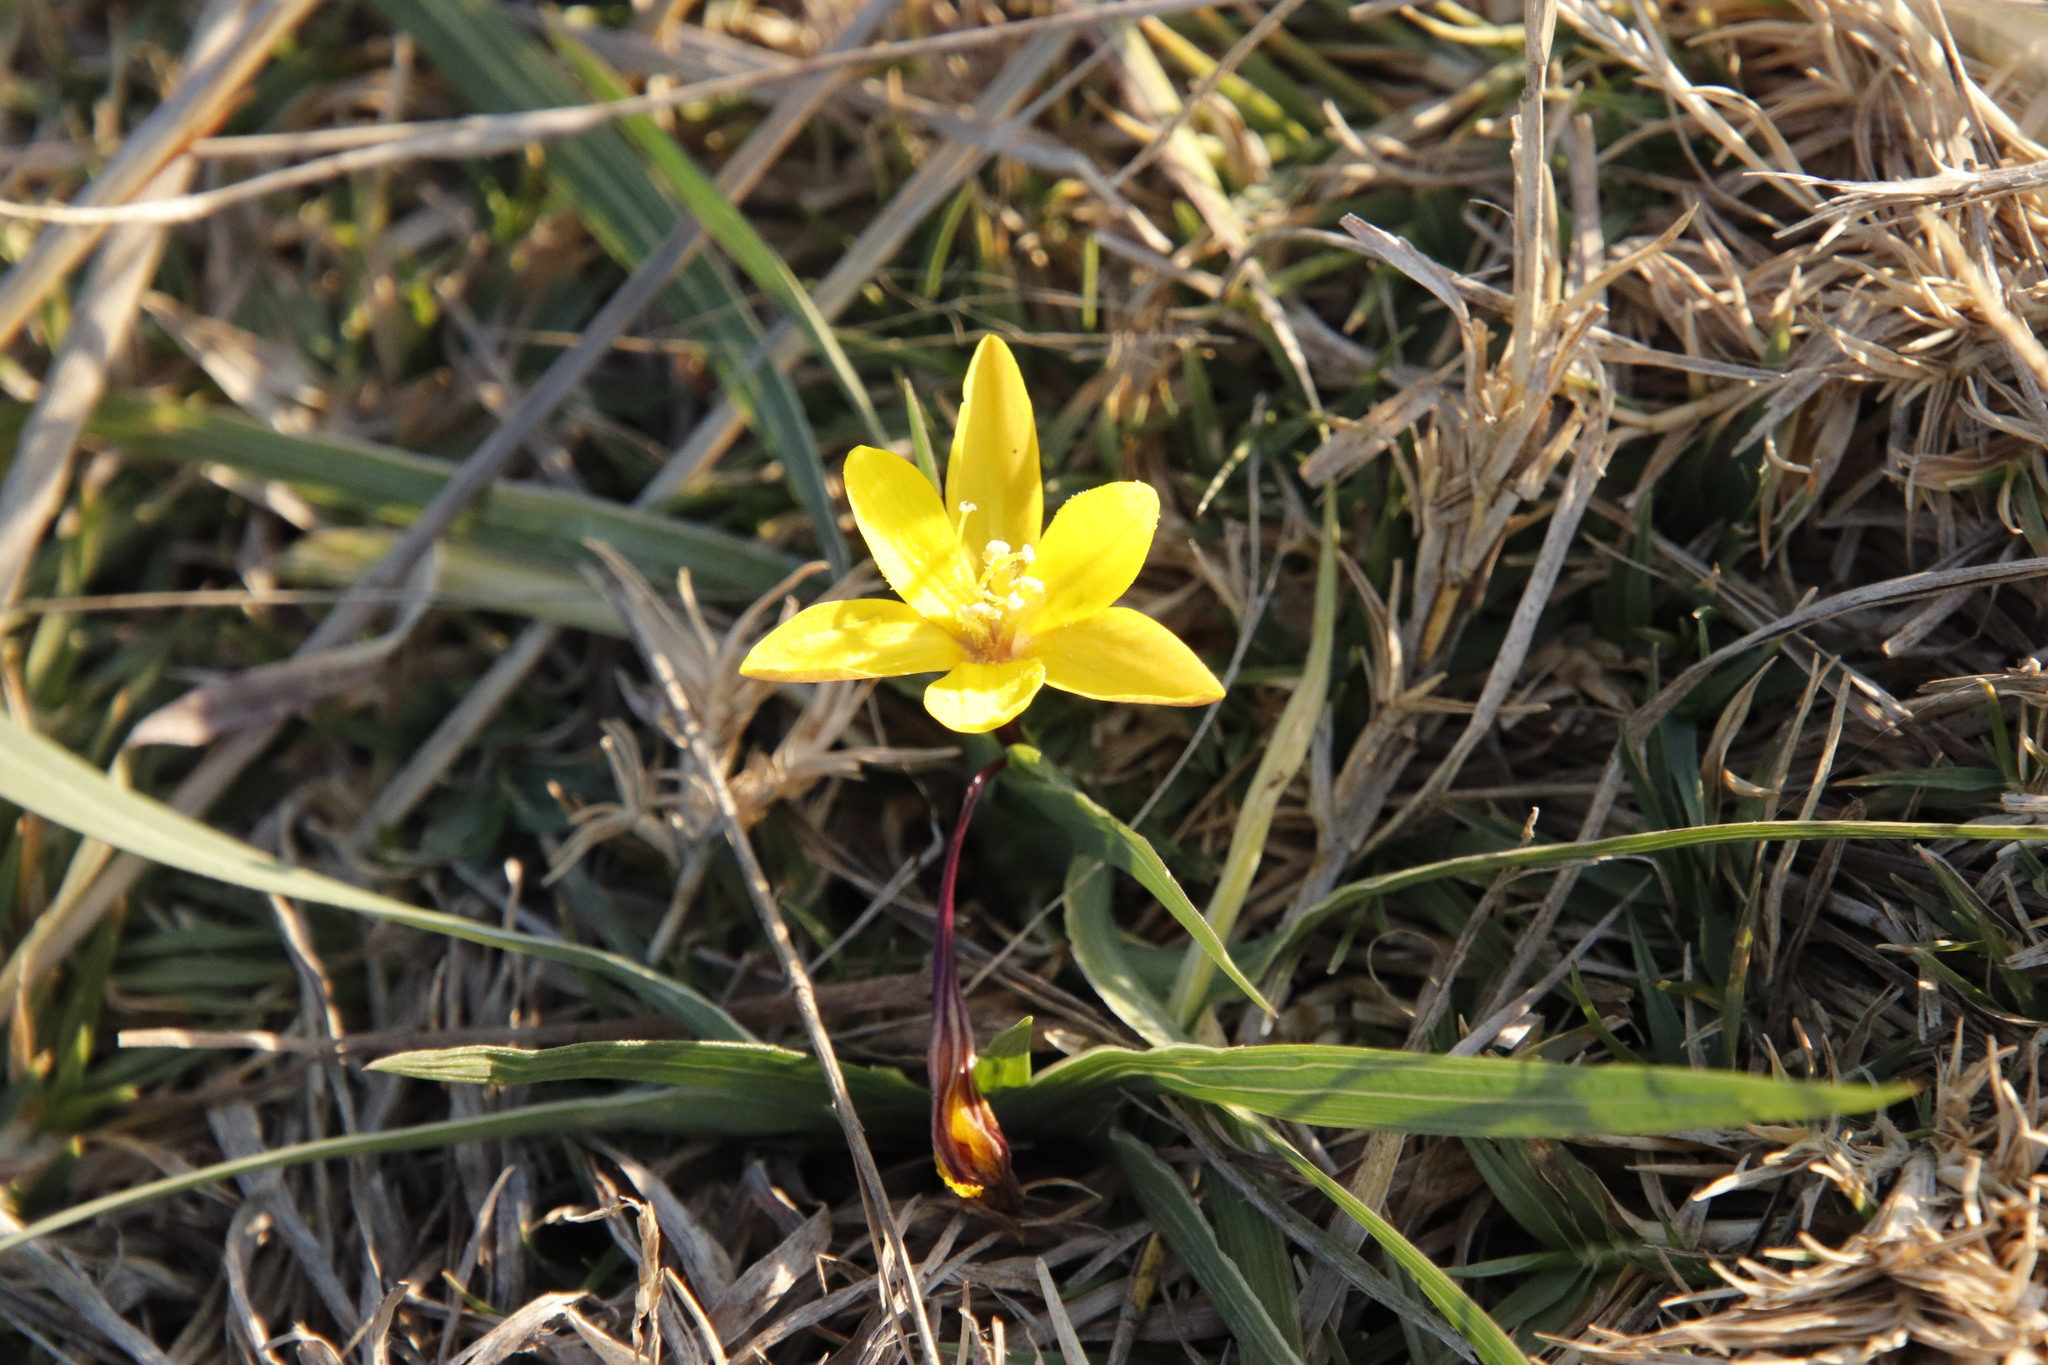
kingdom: Plantae
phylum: Tracheophyta
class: Liliopsida
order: Asparagales
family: Iridaceae
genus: Duthiastrum
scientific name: Duthiastrum linifolium
